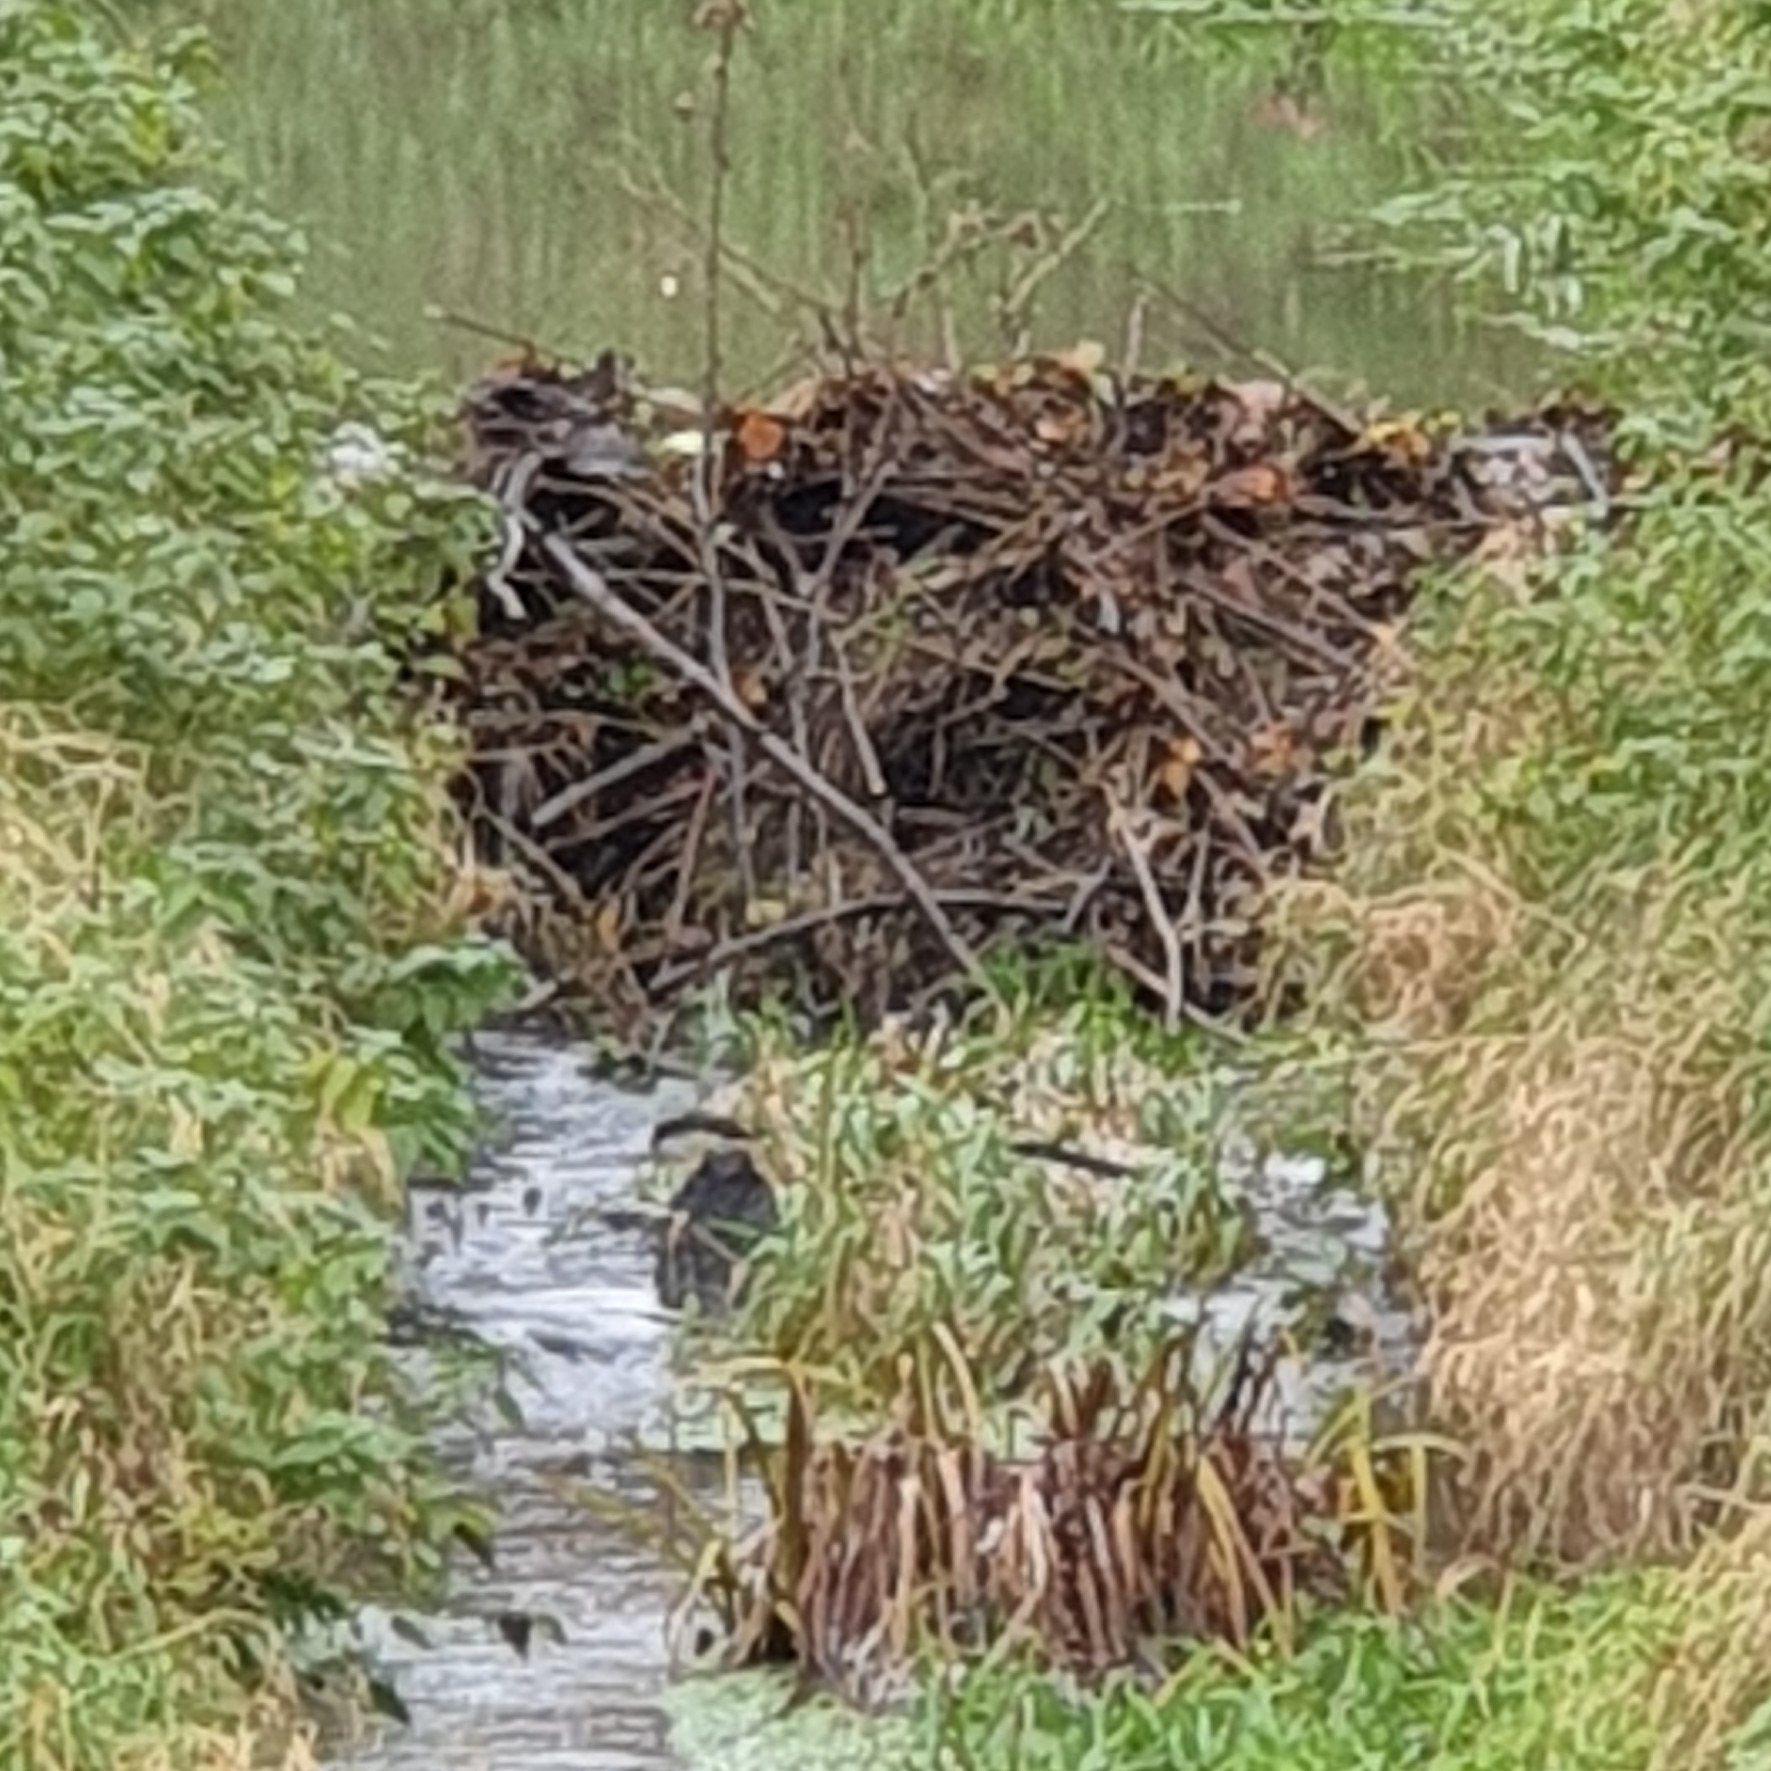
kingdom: Animalia
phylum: Chordata
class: Mammalia
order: Rodentia
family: Castoridae
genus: Castor
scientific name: Castor fiber
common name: Eurasian beaver
